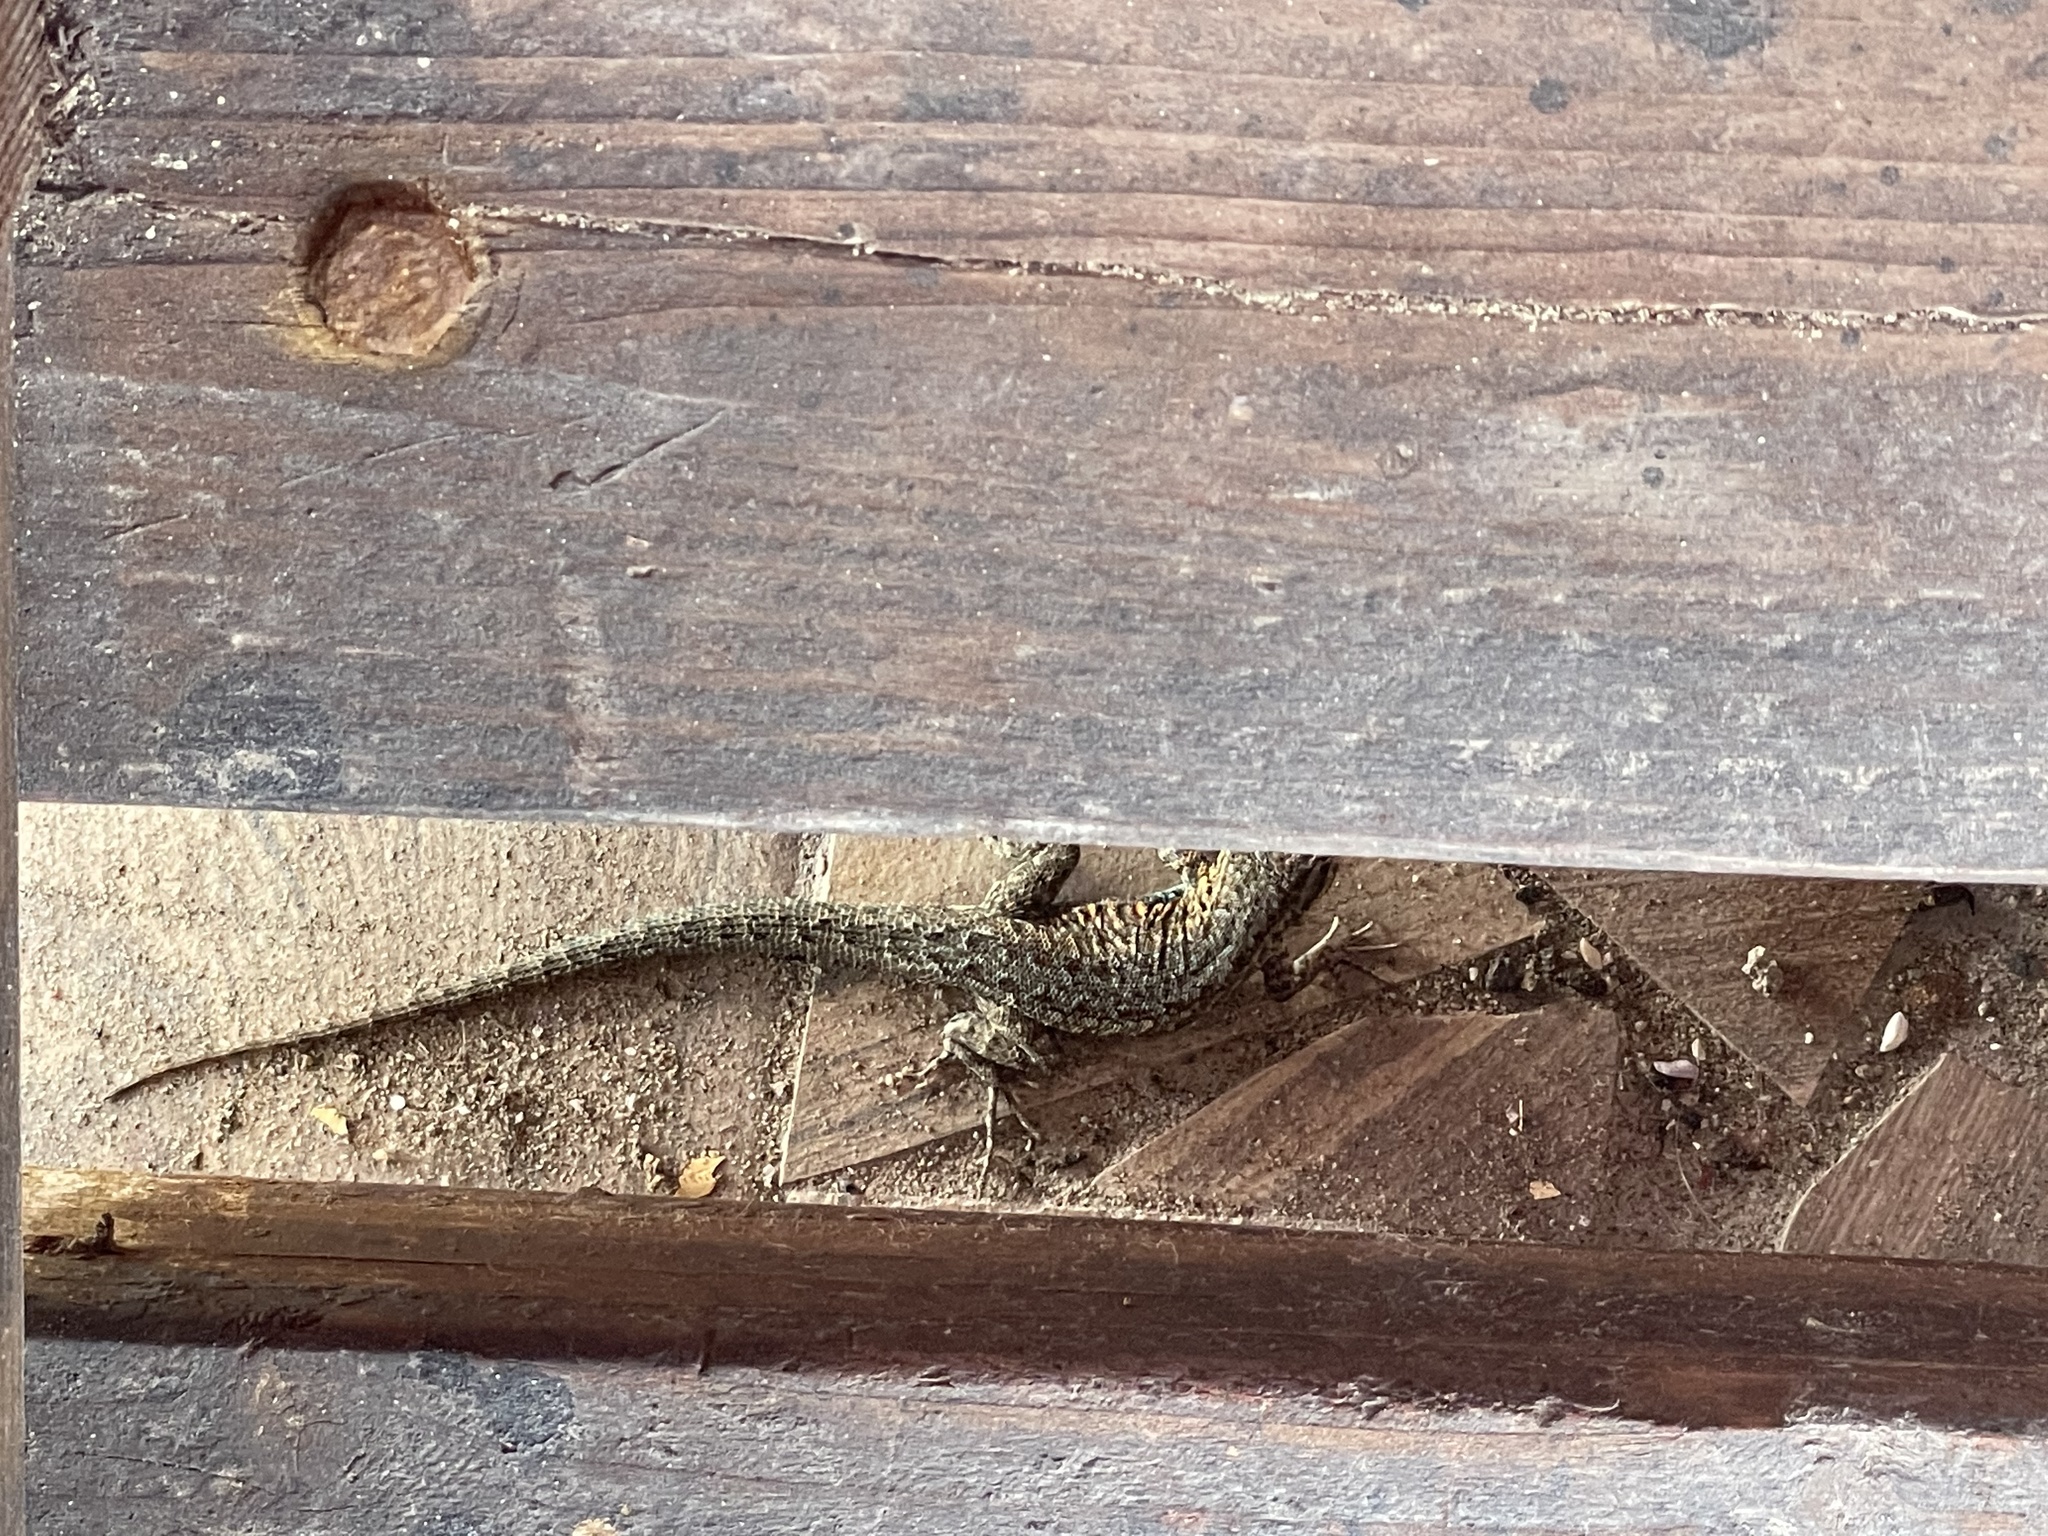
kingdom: Animalia
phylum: Chordata
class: Squamata
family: Phrynosomatidae
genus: Uta
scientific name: Uta stansburiana
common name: Side-blotched lizard
